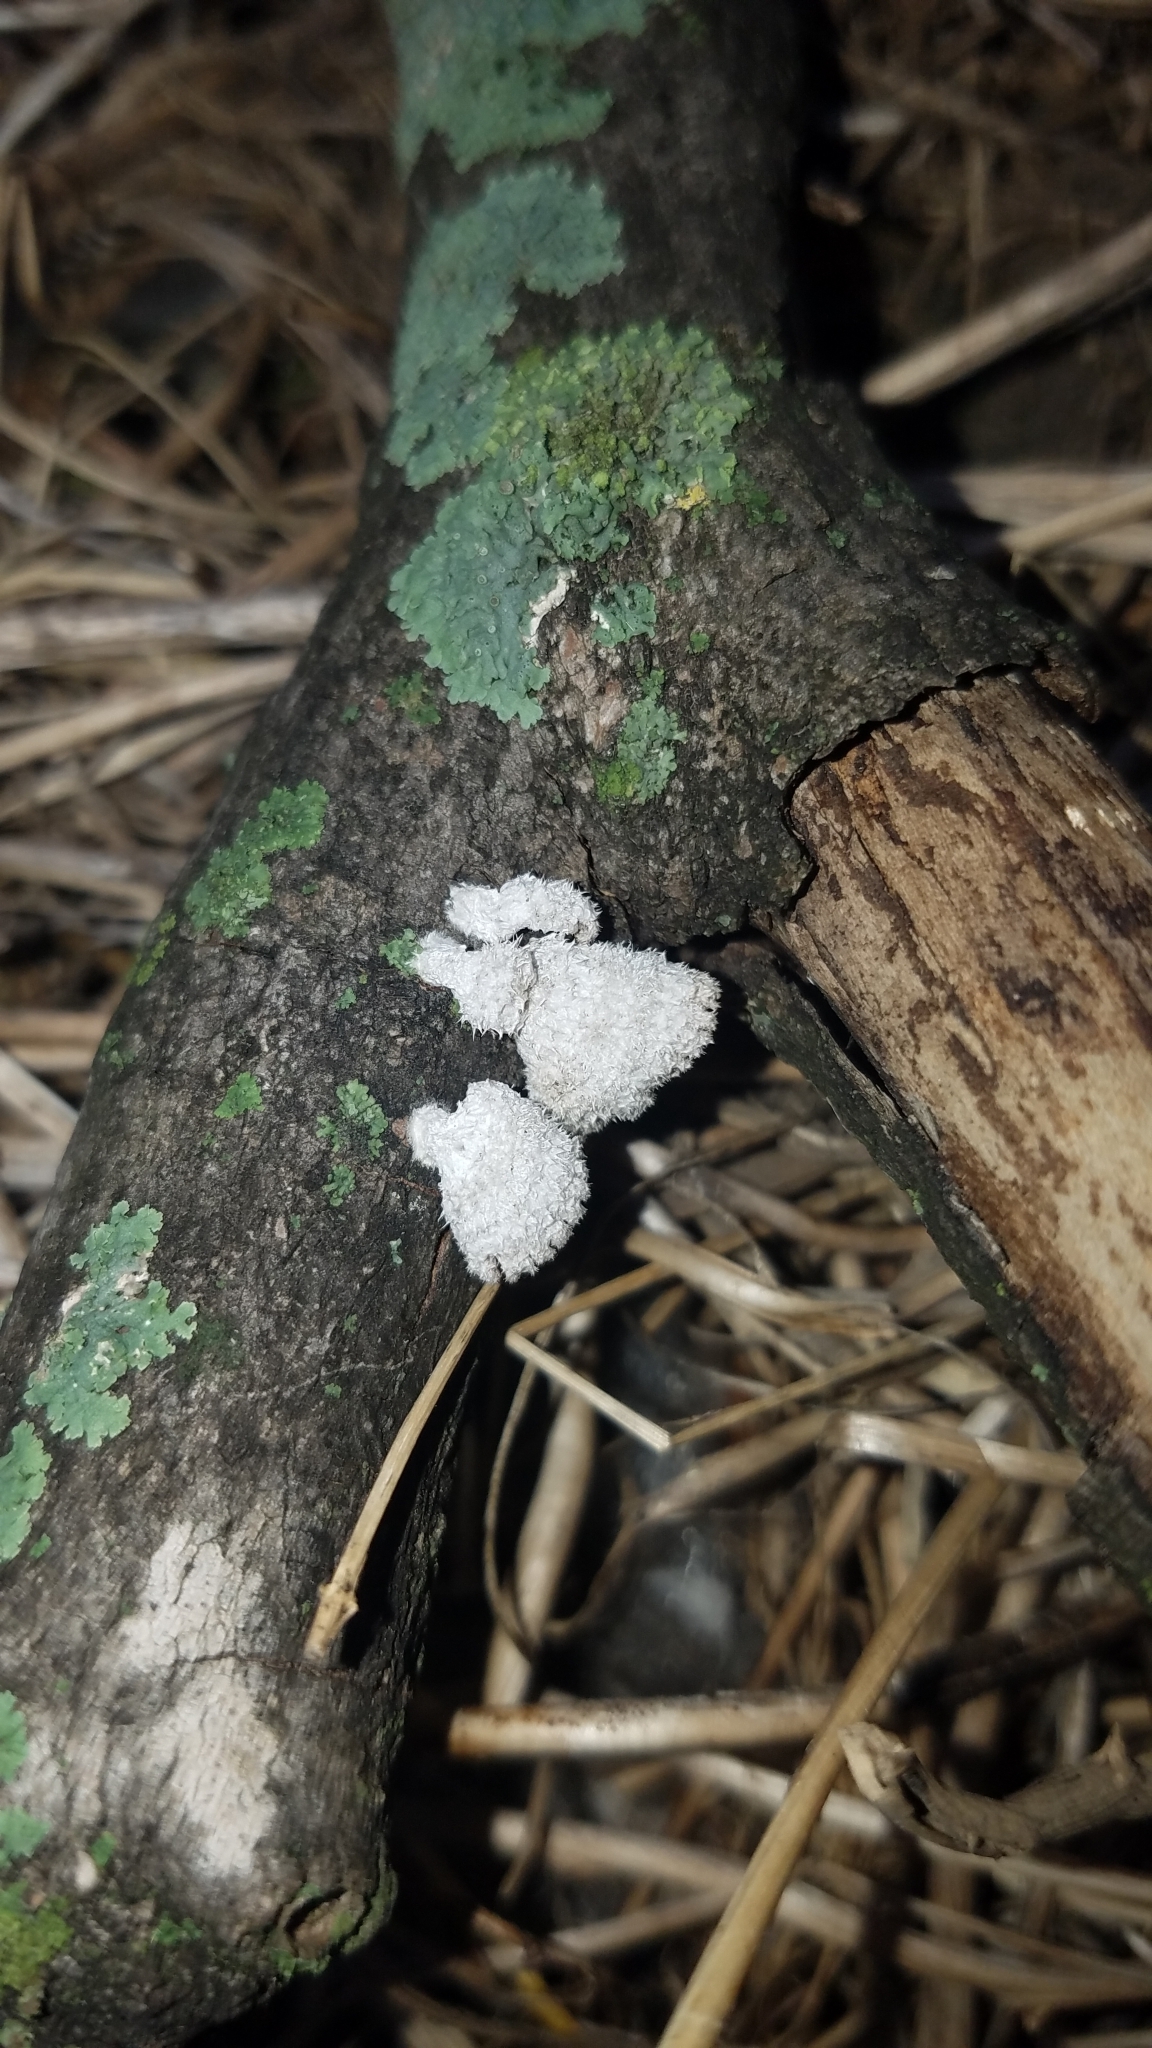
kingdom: Fungi
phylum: Basidiomycota
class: Agaricomycetes
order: Agaricales
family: Schizophyllaceae
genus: Schizophyllum
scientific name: Schizophyllum commune
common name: Common porecrust
